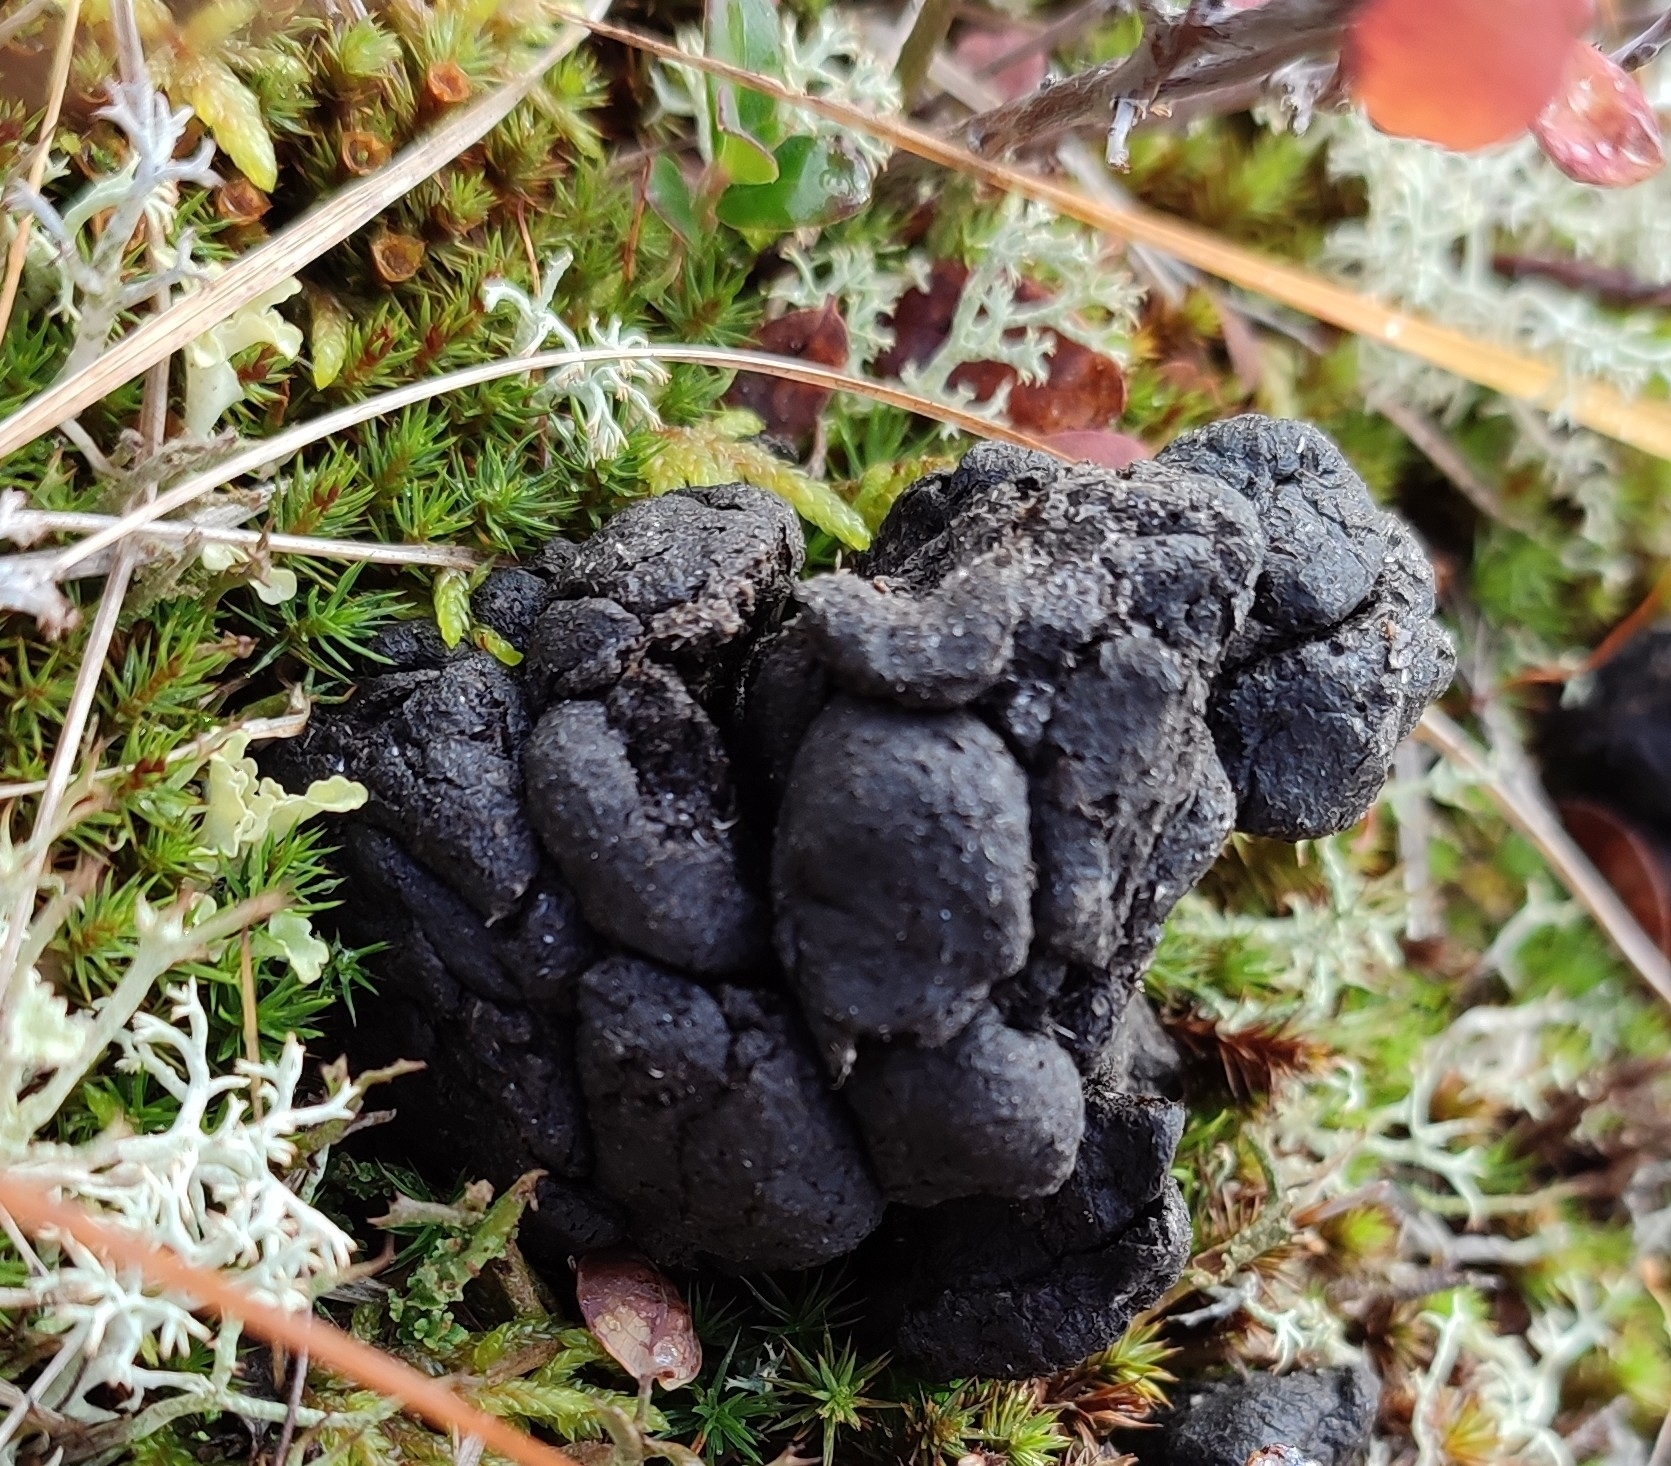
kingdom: Animalia
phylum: Chordata
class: Mammalia
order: Artiodactyla
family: Cervidae
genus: Rangifer
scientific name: Rangifer tarandus
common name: Reindeer
